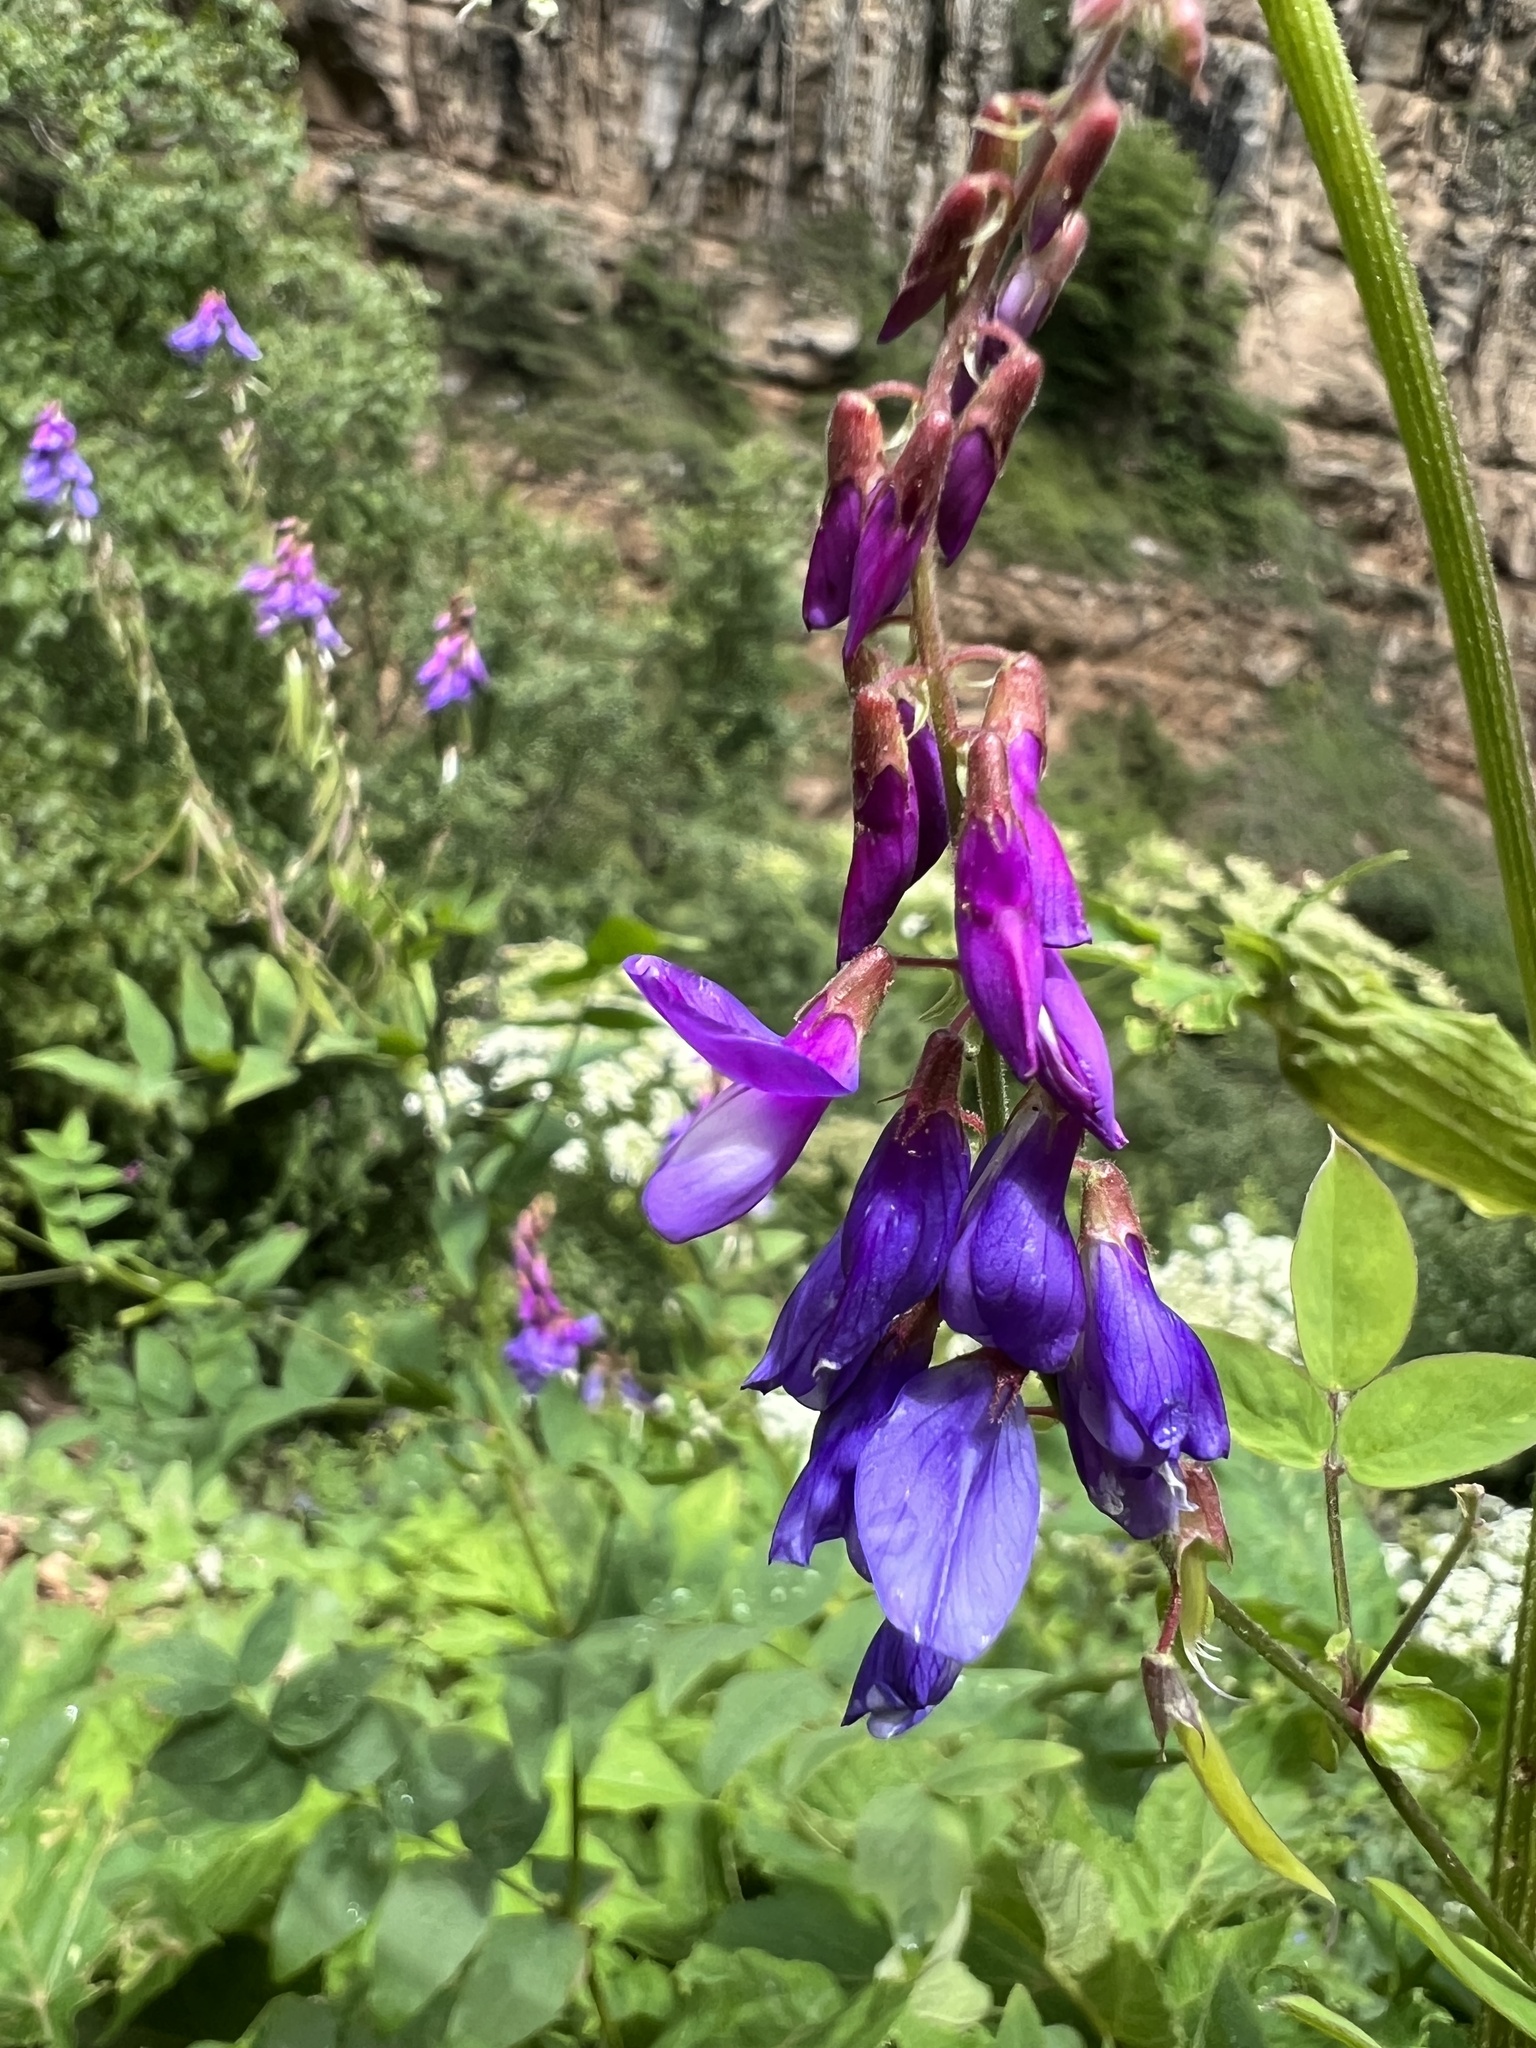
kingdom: Plantae
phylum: Tracheophyta
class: Magnoliopsida
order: Fabales
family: Fabaceae
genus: Galega
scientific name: Galega orientalis
